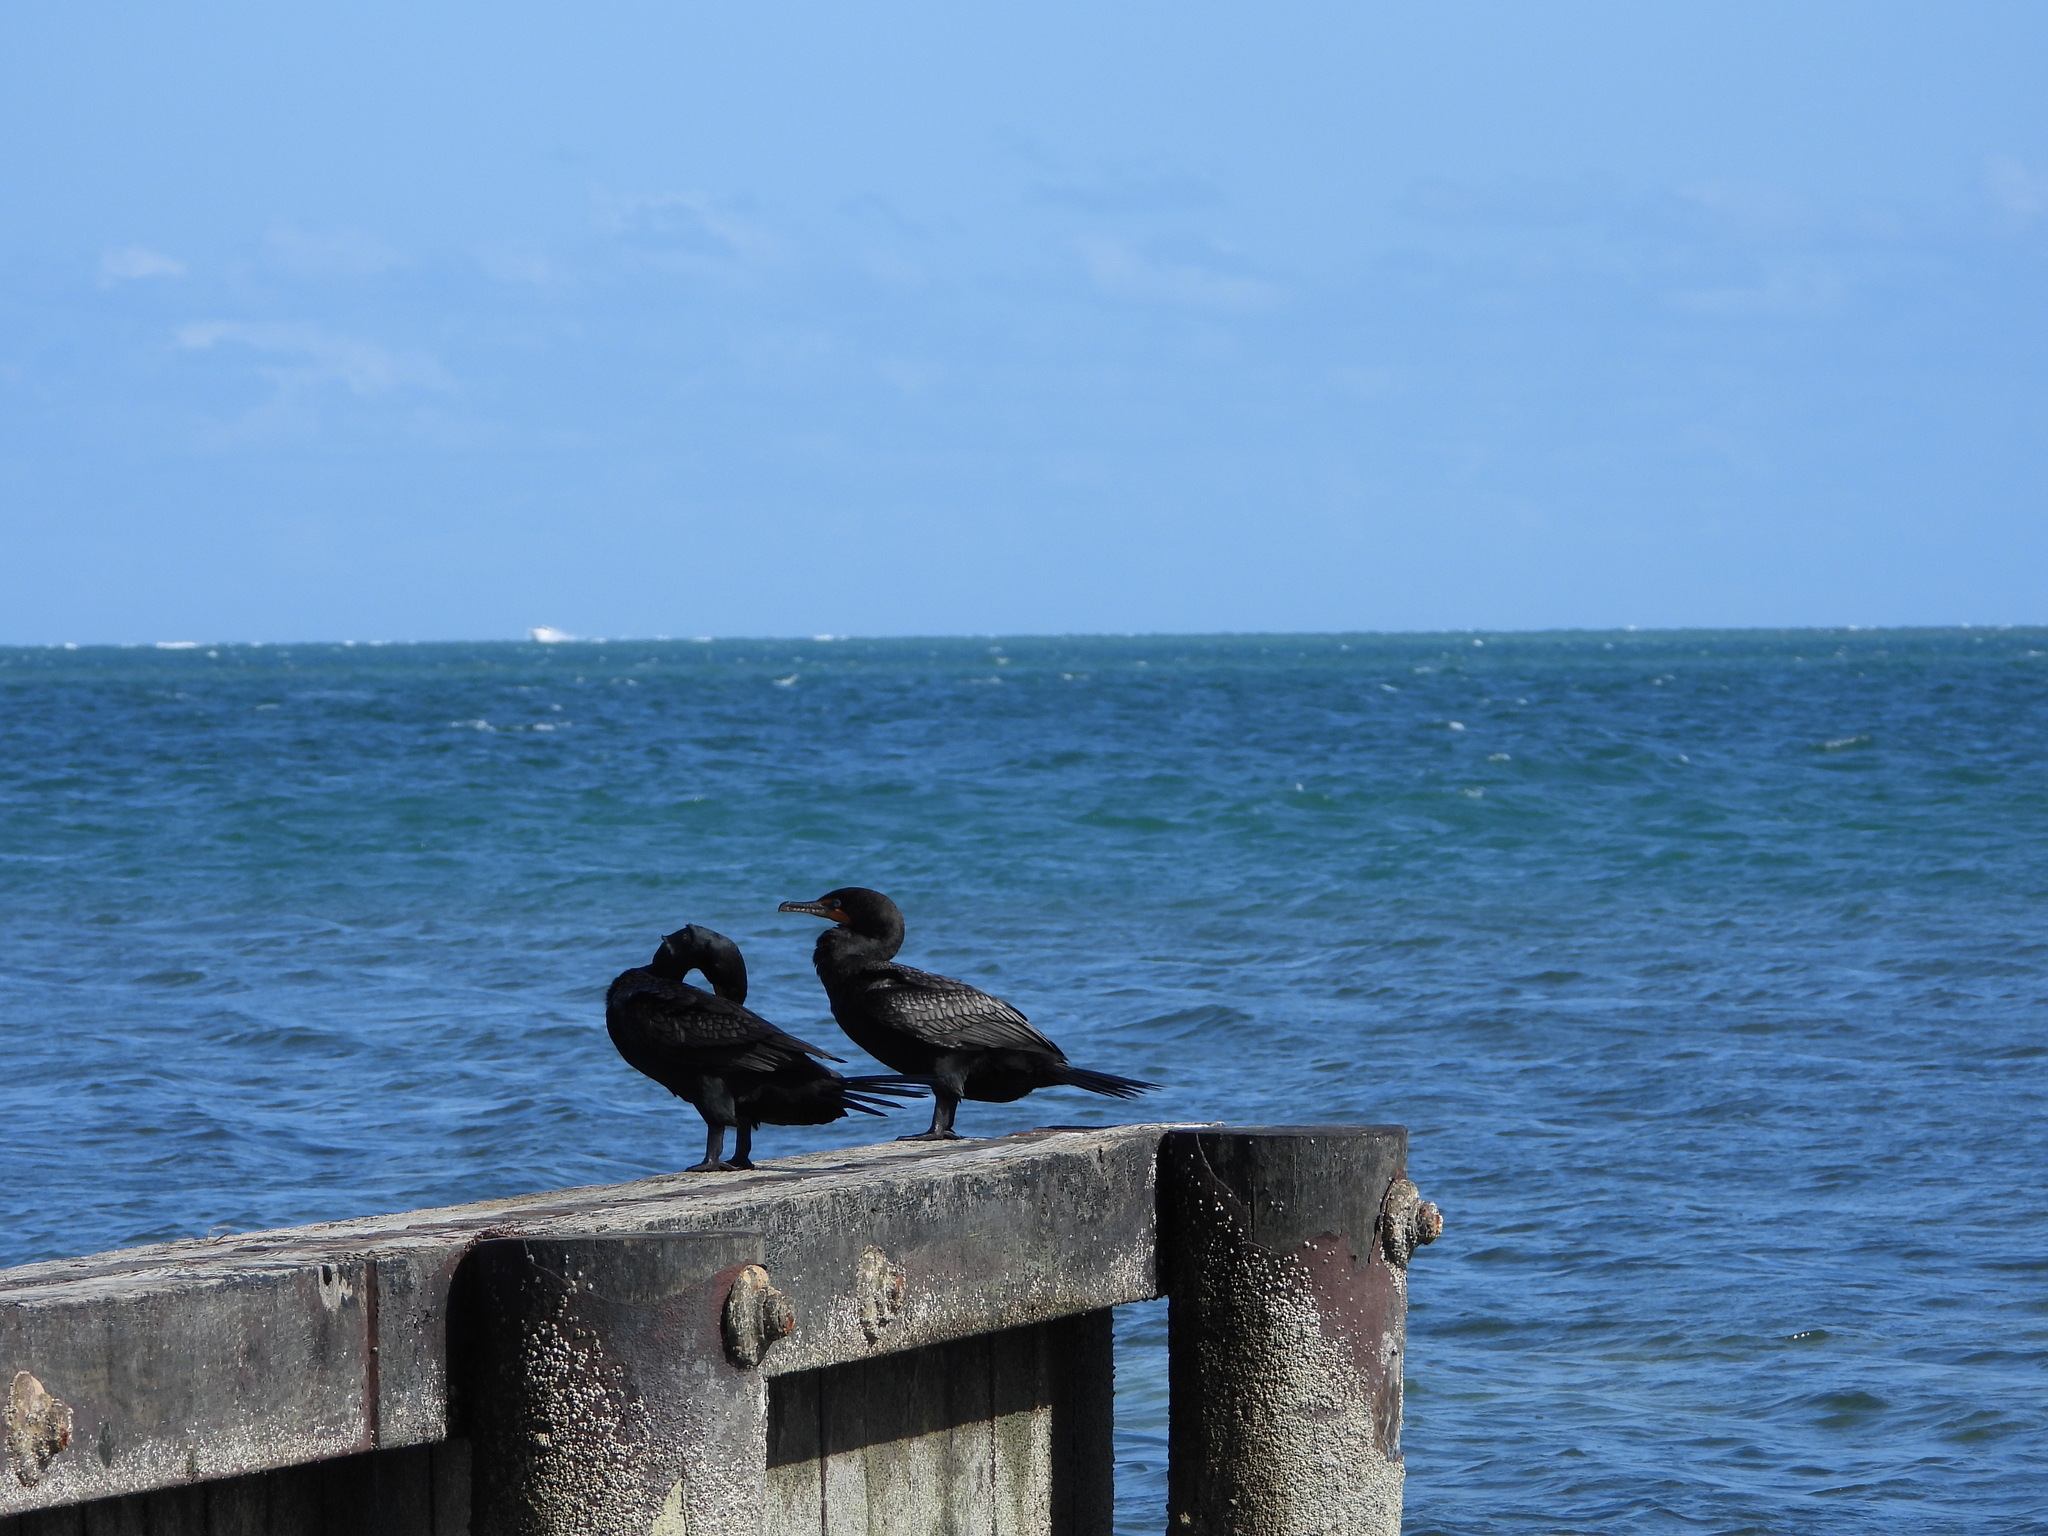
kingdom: Animalia
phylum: Chordata
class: Aves
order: Suliformes
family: Phalacrocoracidae
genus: Phalacrocorax
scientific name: Phalacrocorax auritus
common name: Double-crested cormorant
